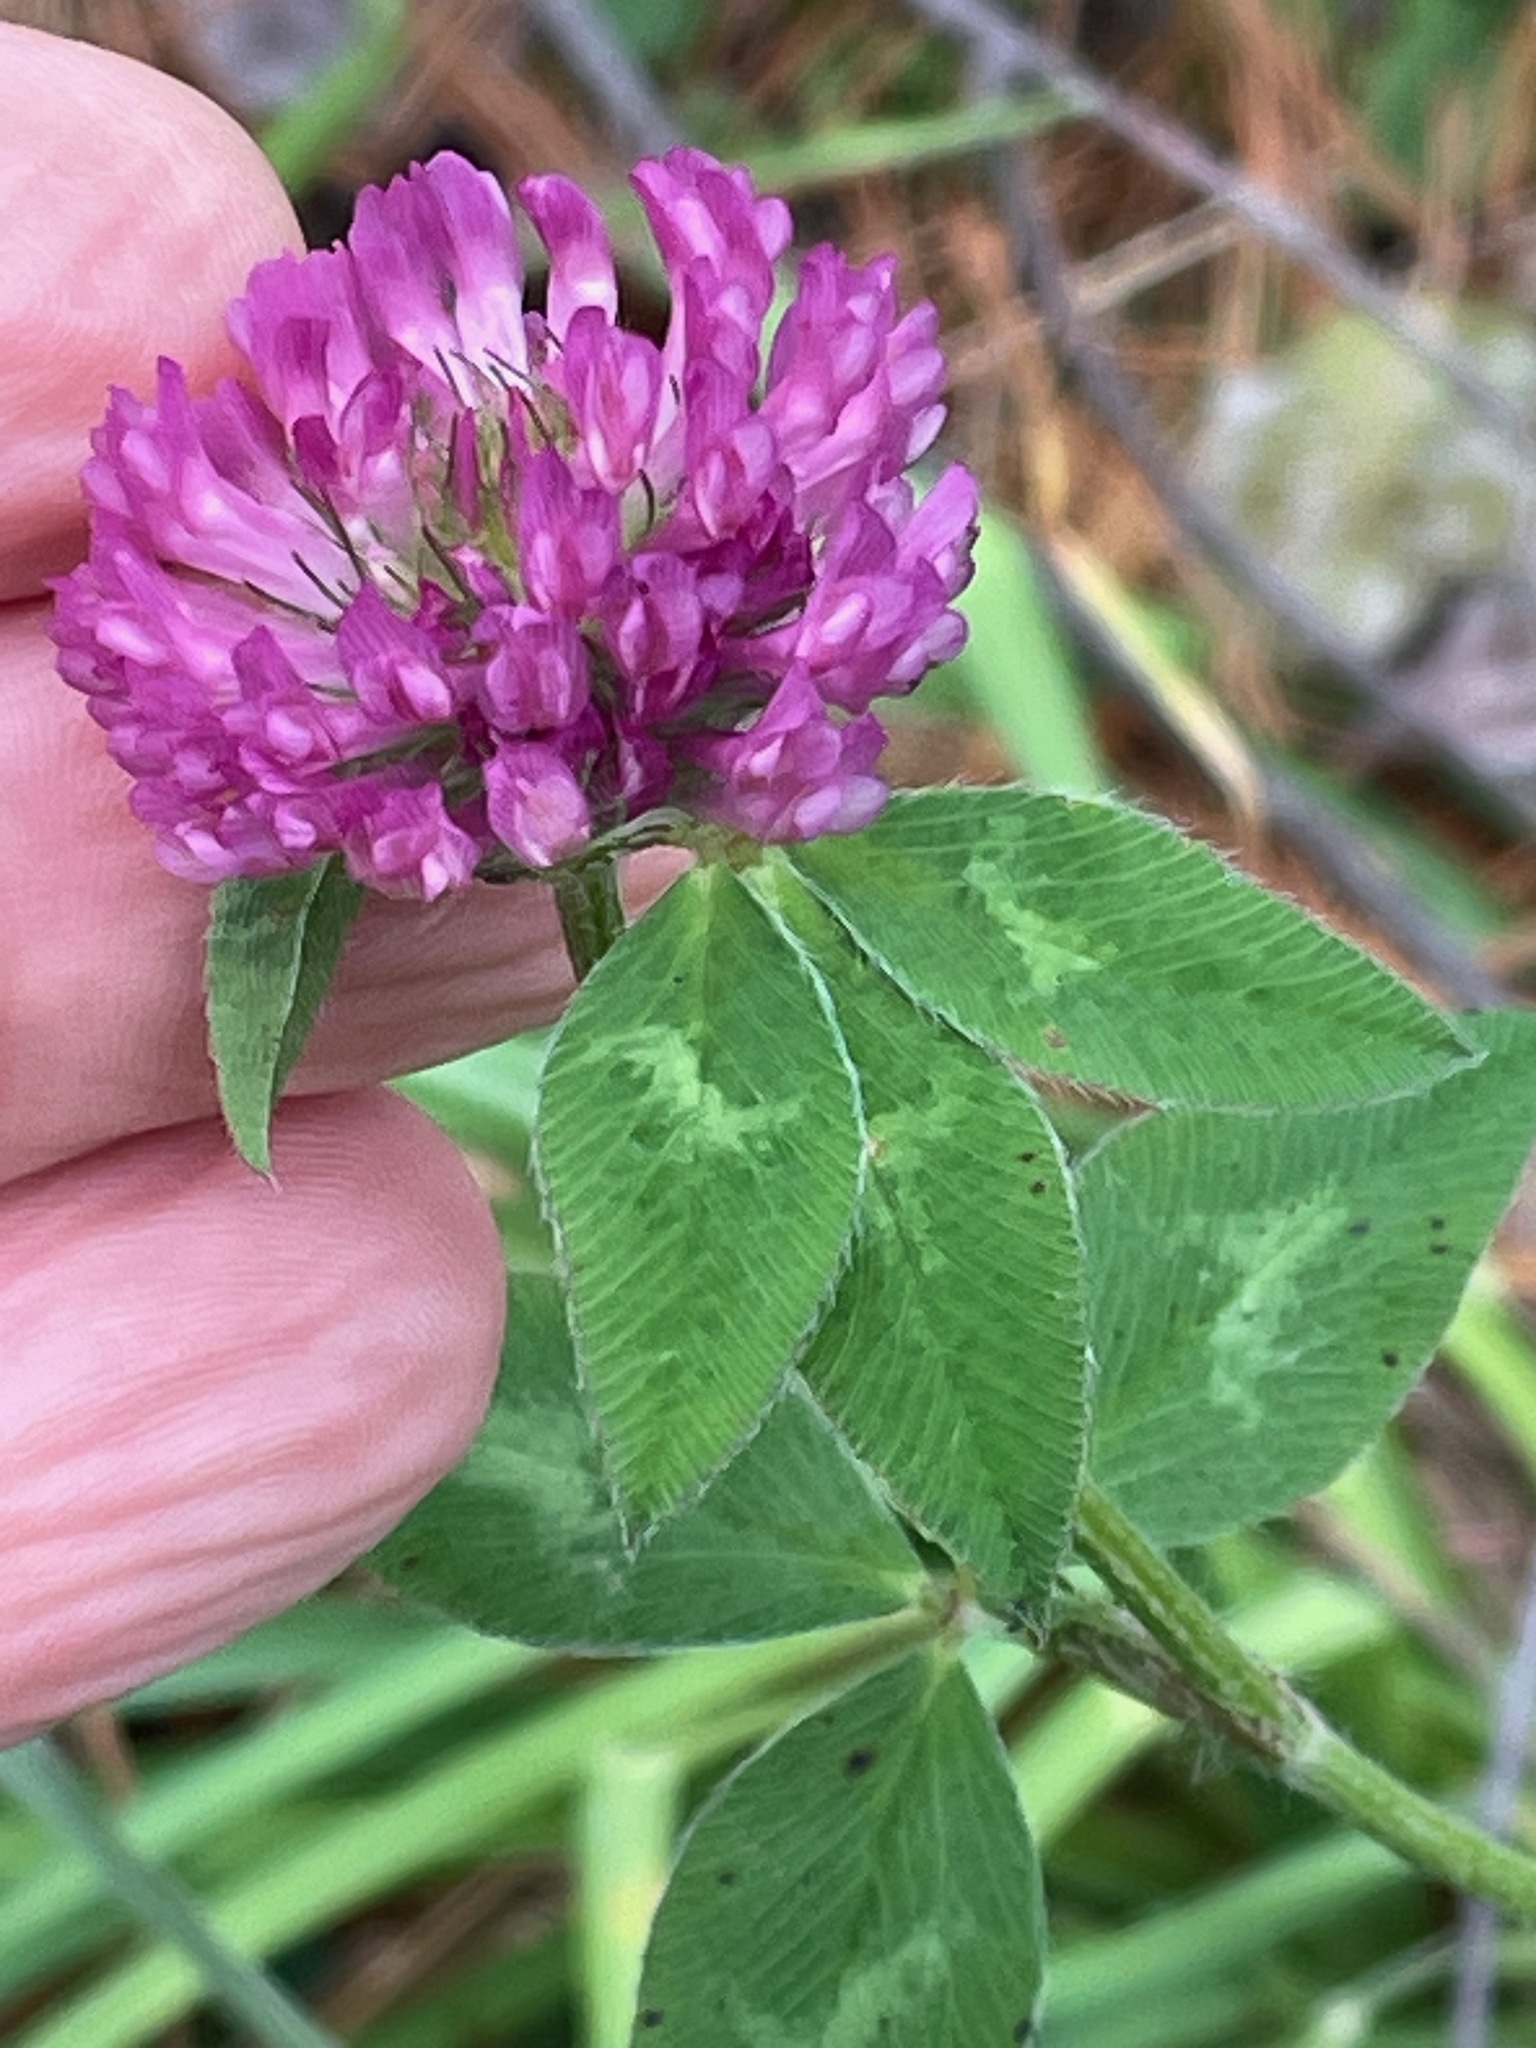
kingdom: Plantae
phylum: Tracheophyta
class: Magnoliopsida
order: Fabales
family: Fabaceae
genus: Trifolium
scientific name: Trifolium pratense
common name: Red clover
